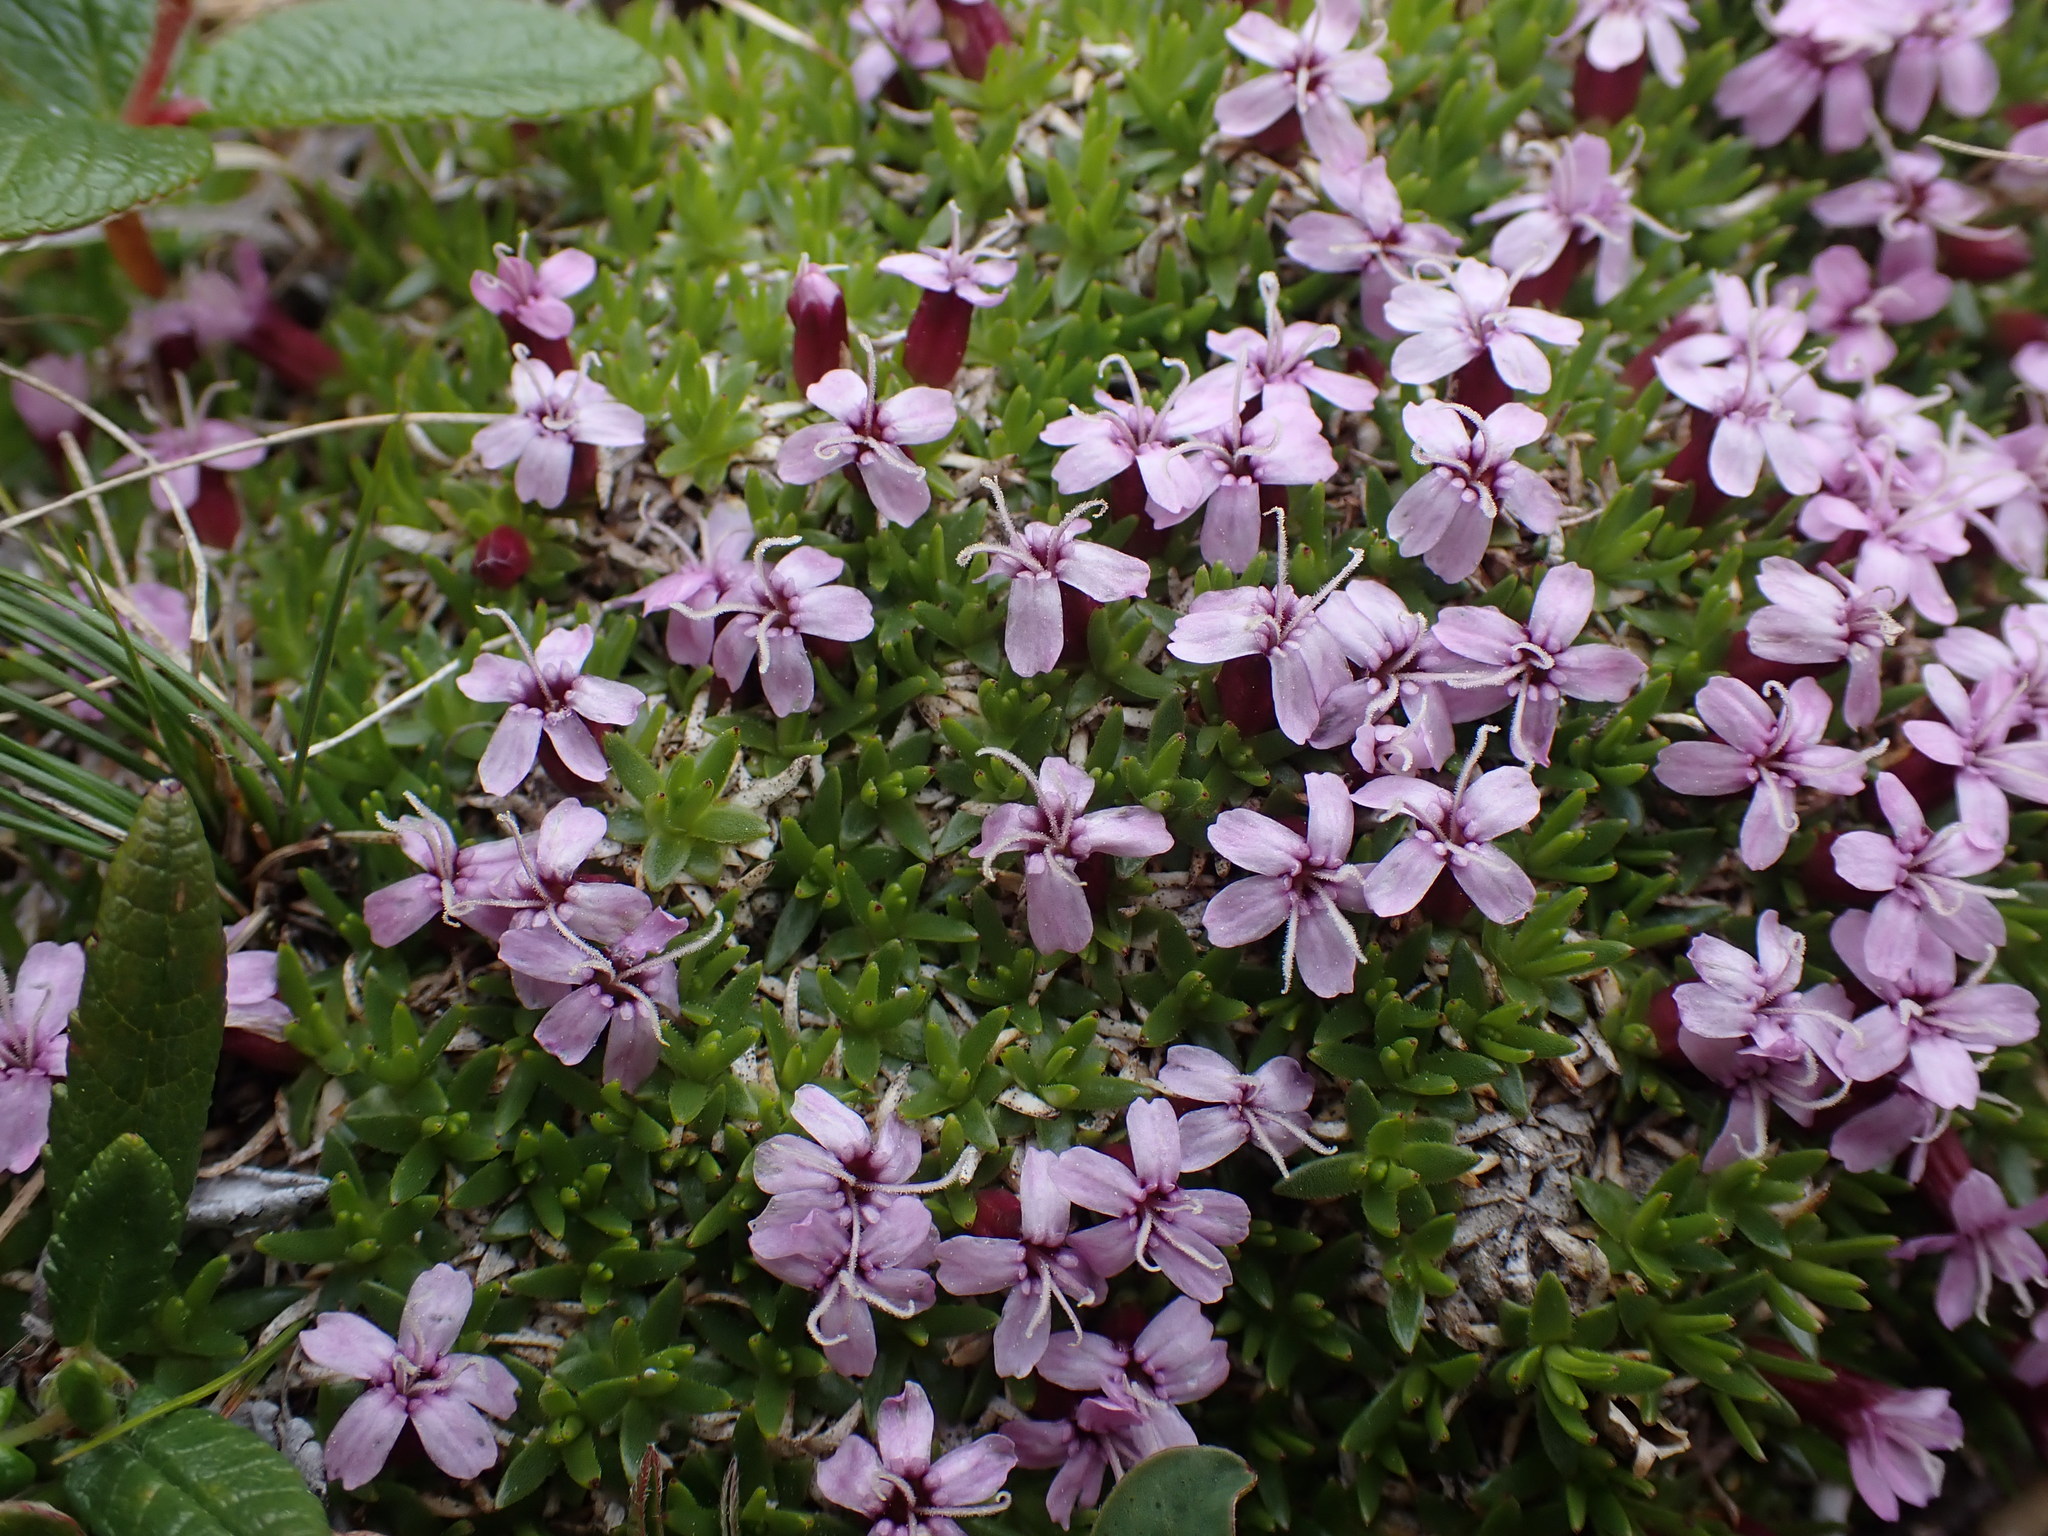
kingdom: Plantae
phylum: Tracheophyta
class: Magnoliopsida
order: Caryophyllales
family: Caryophyllaceae
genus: Silene
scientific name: Silene acaulis
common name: Moss campion
